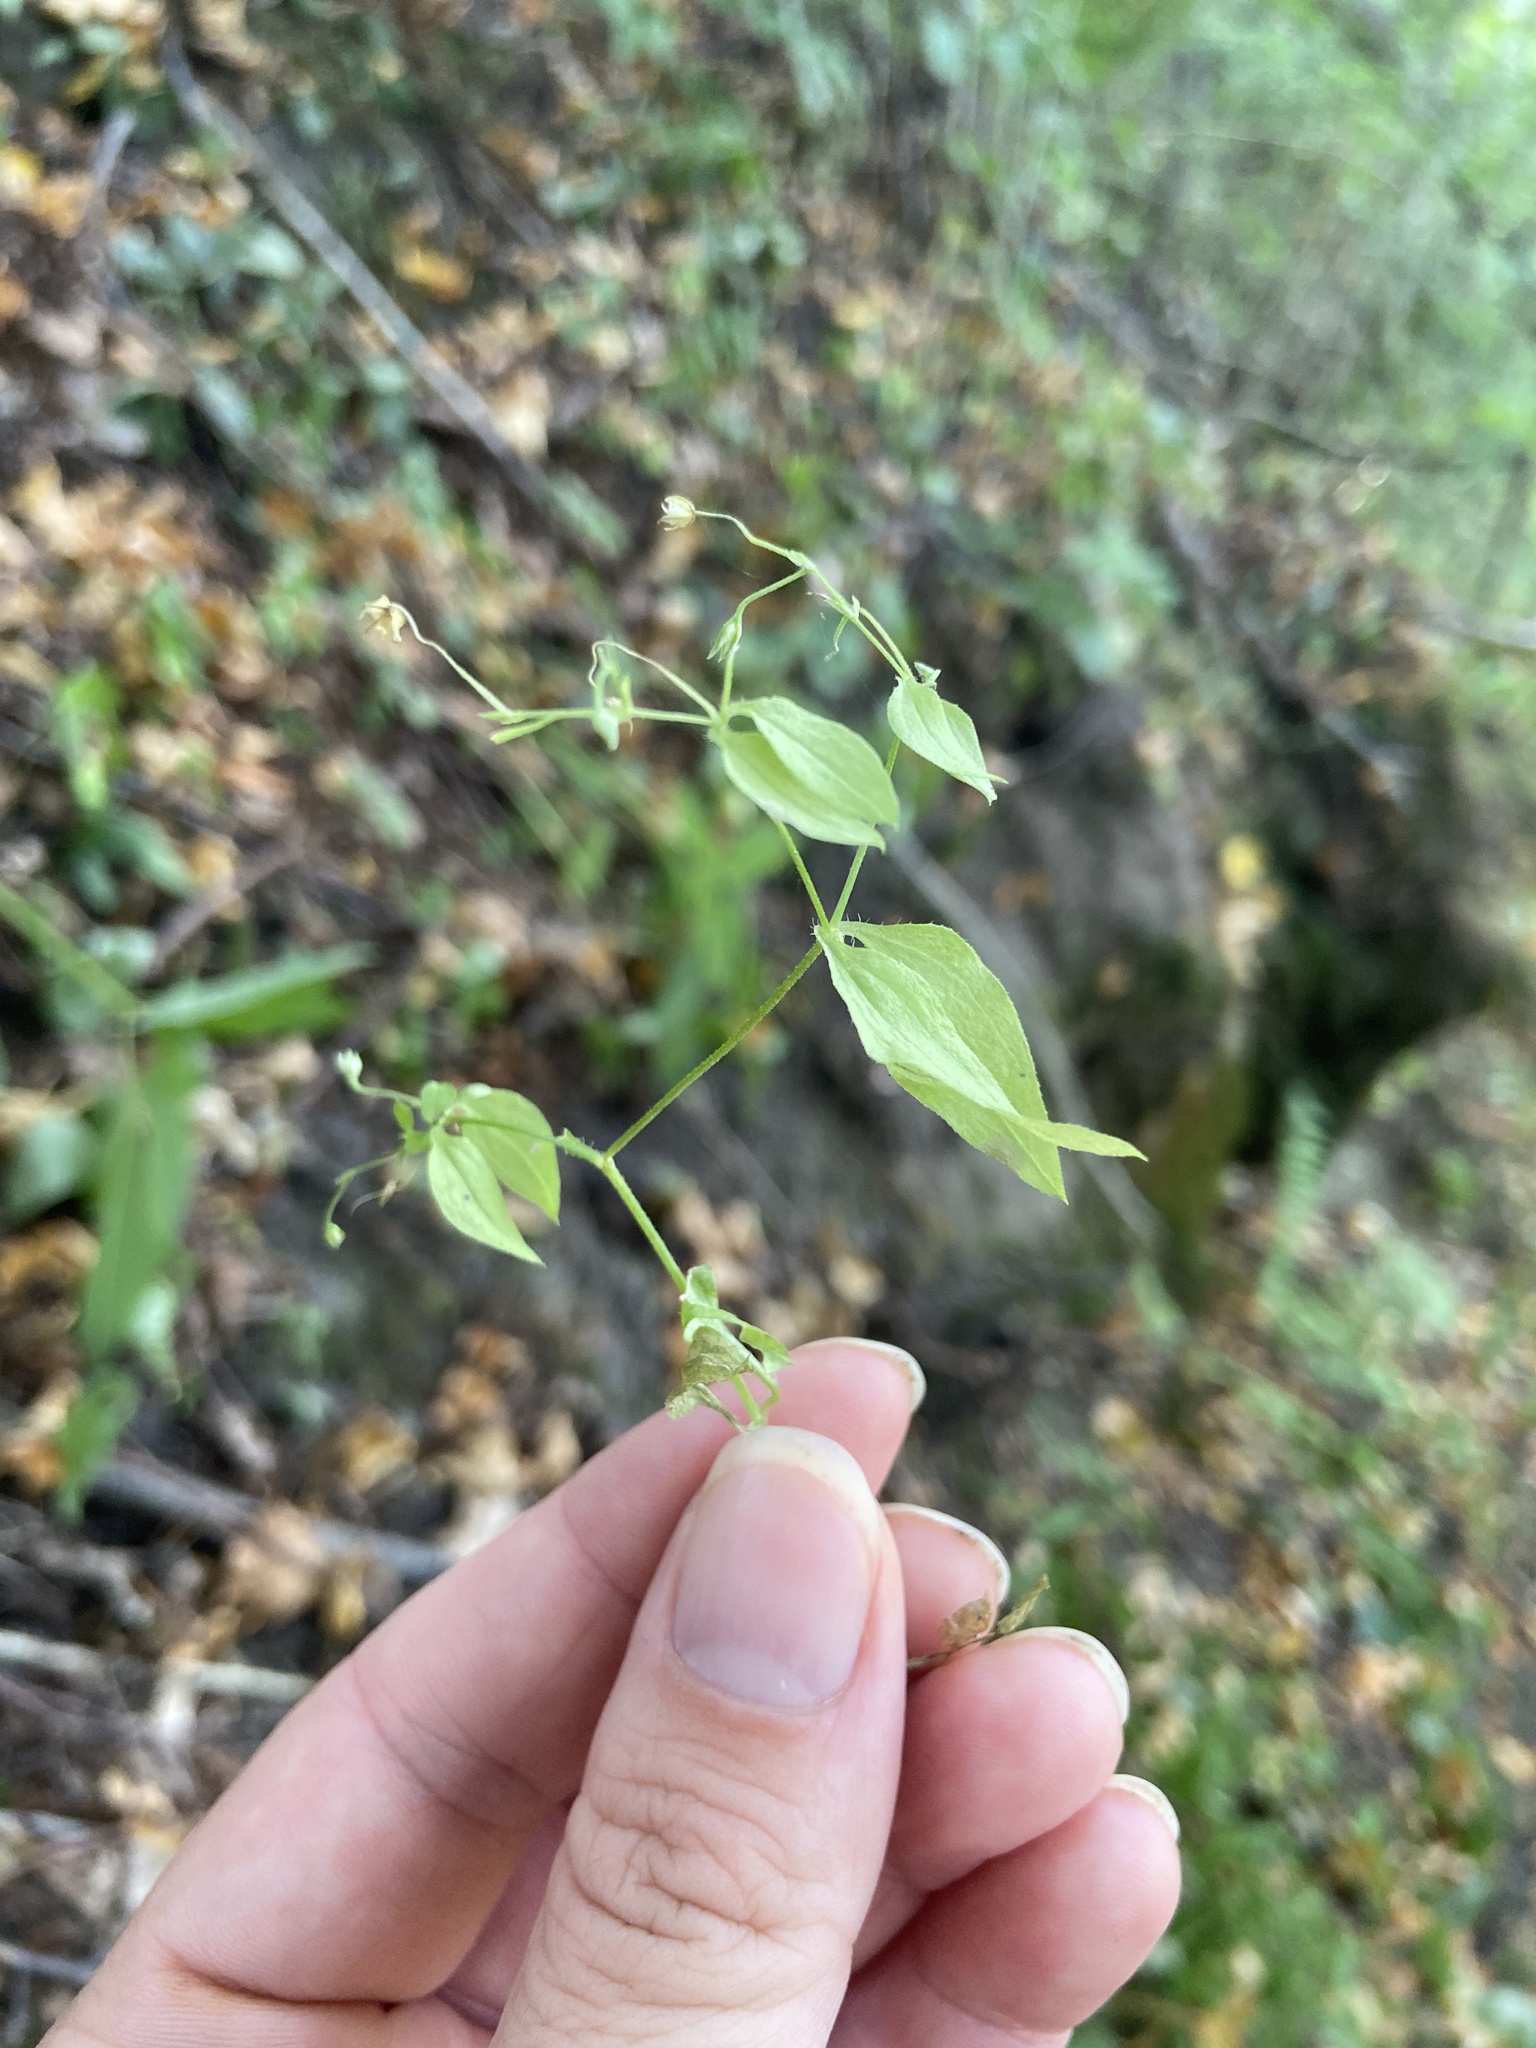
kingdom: Plantae
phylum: Tracheophyta
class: Magnoliopsida
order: Caryophyllales
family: Caryophyllaceae
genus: Moehringia
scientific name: Moehringia trinervia
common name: Three-nerved sandwort
